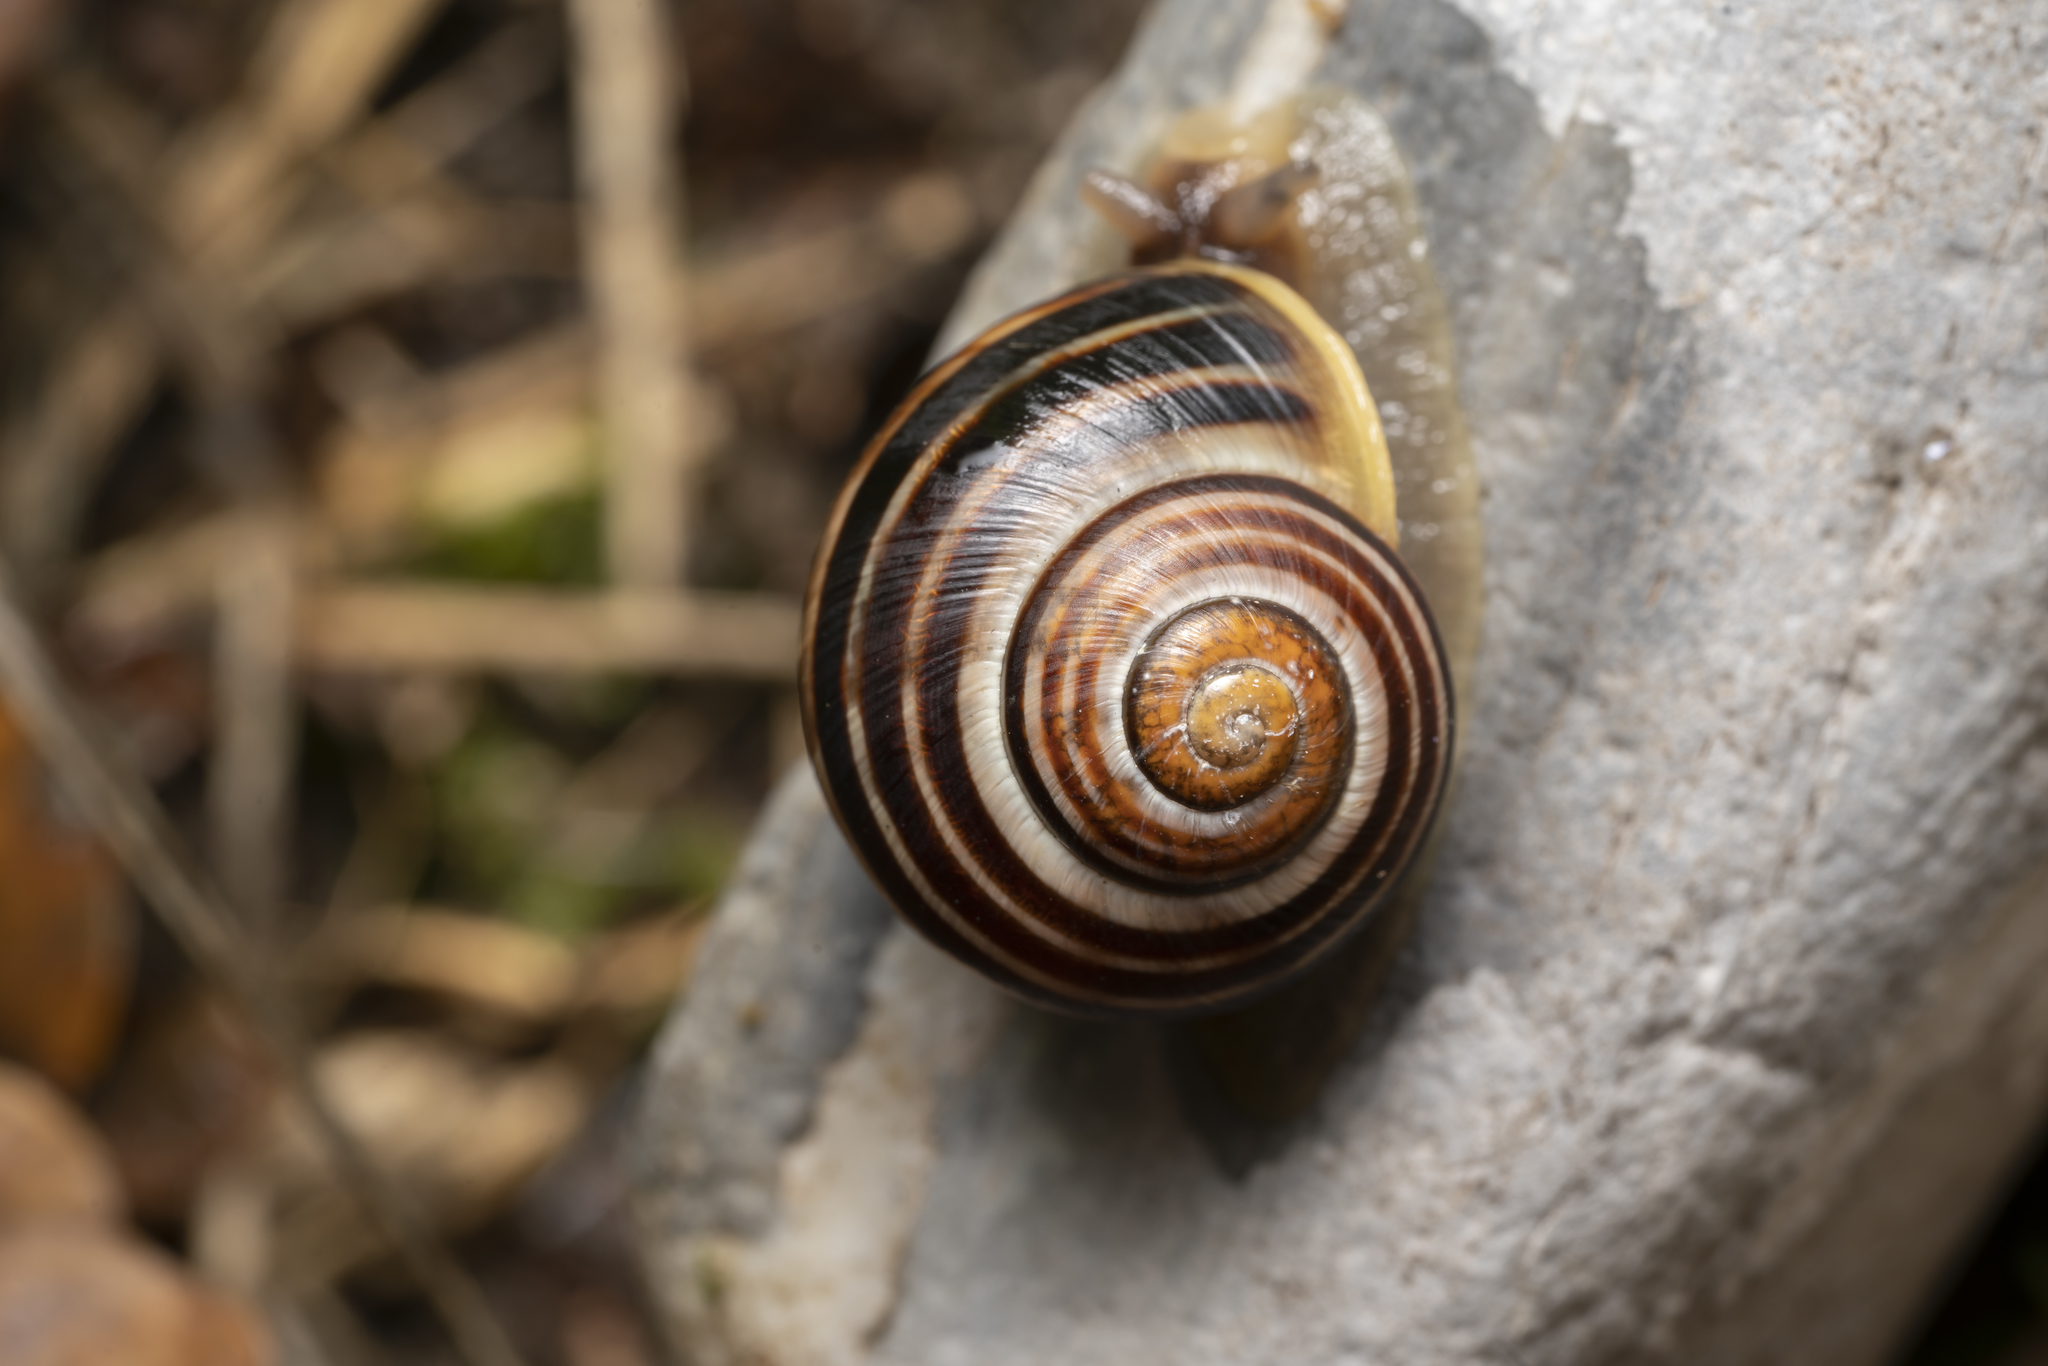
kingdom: Animalia
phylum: Mollusca
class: Gastropoda
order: Stylommatophora
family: Helicidae
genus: Cepaea
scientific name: Cepaea
